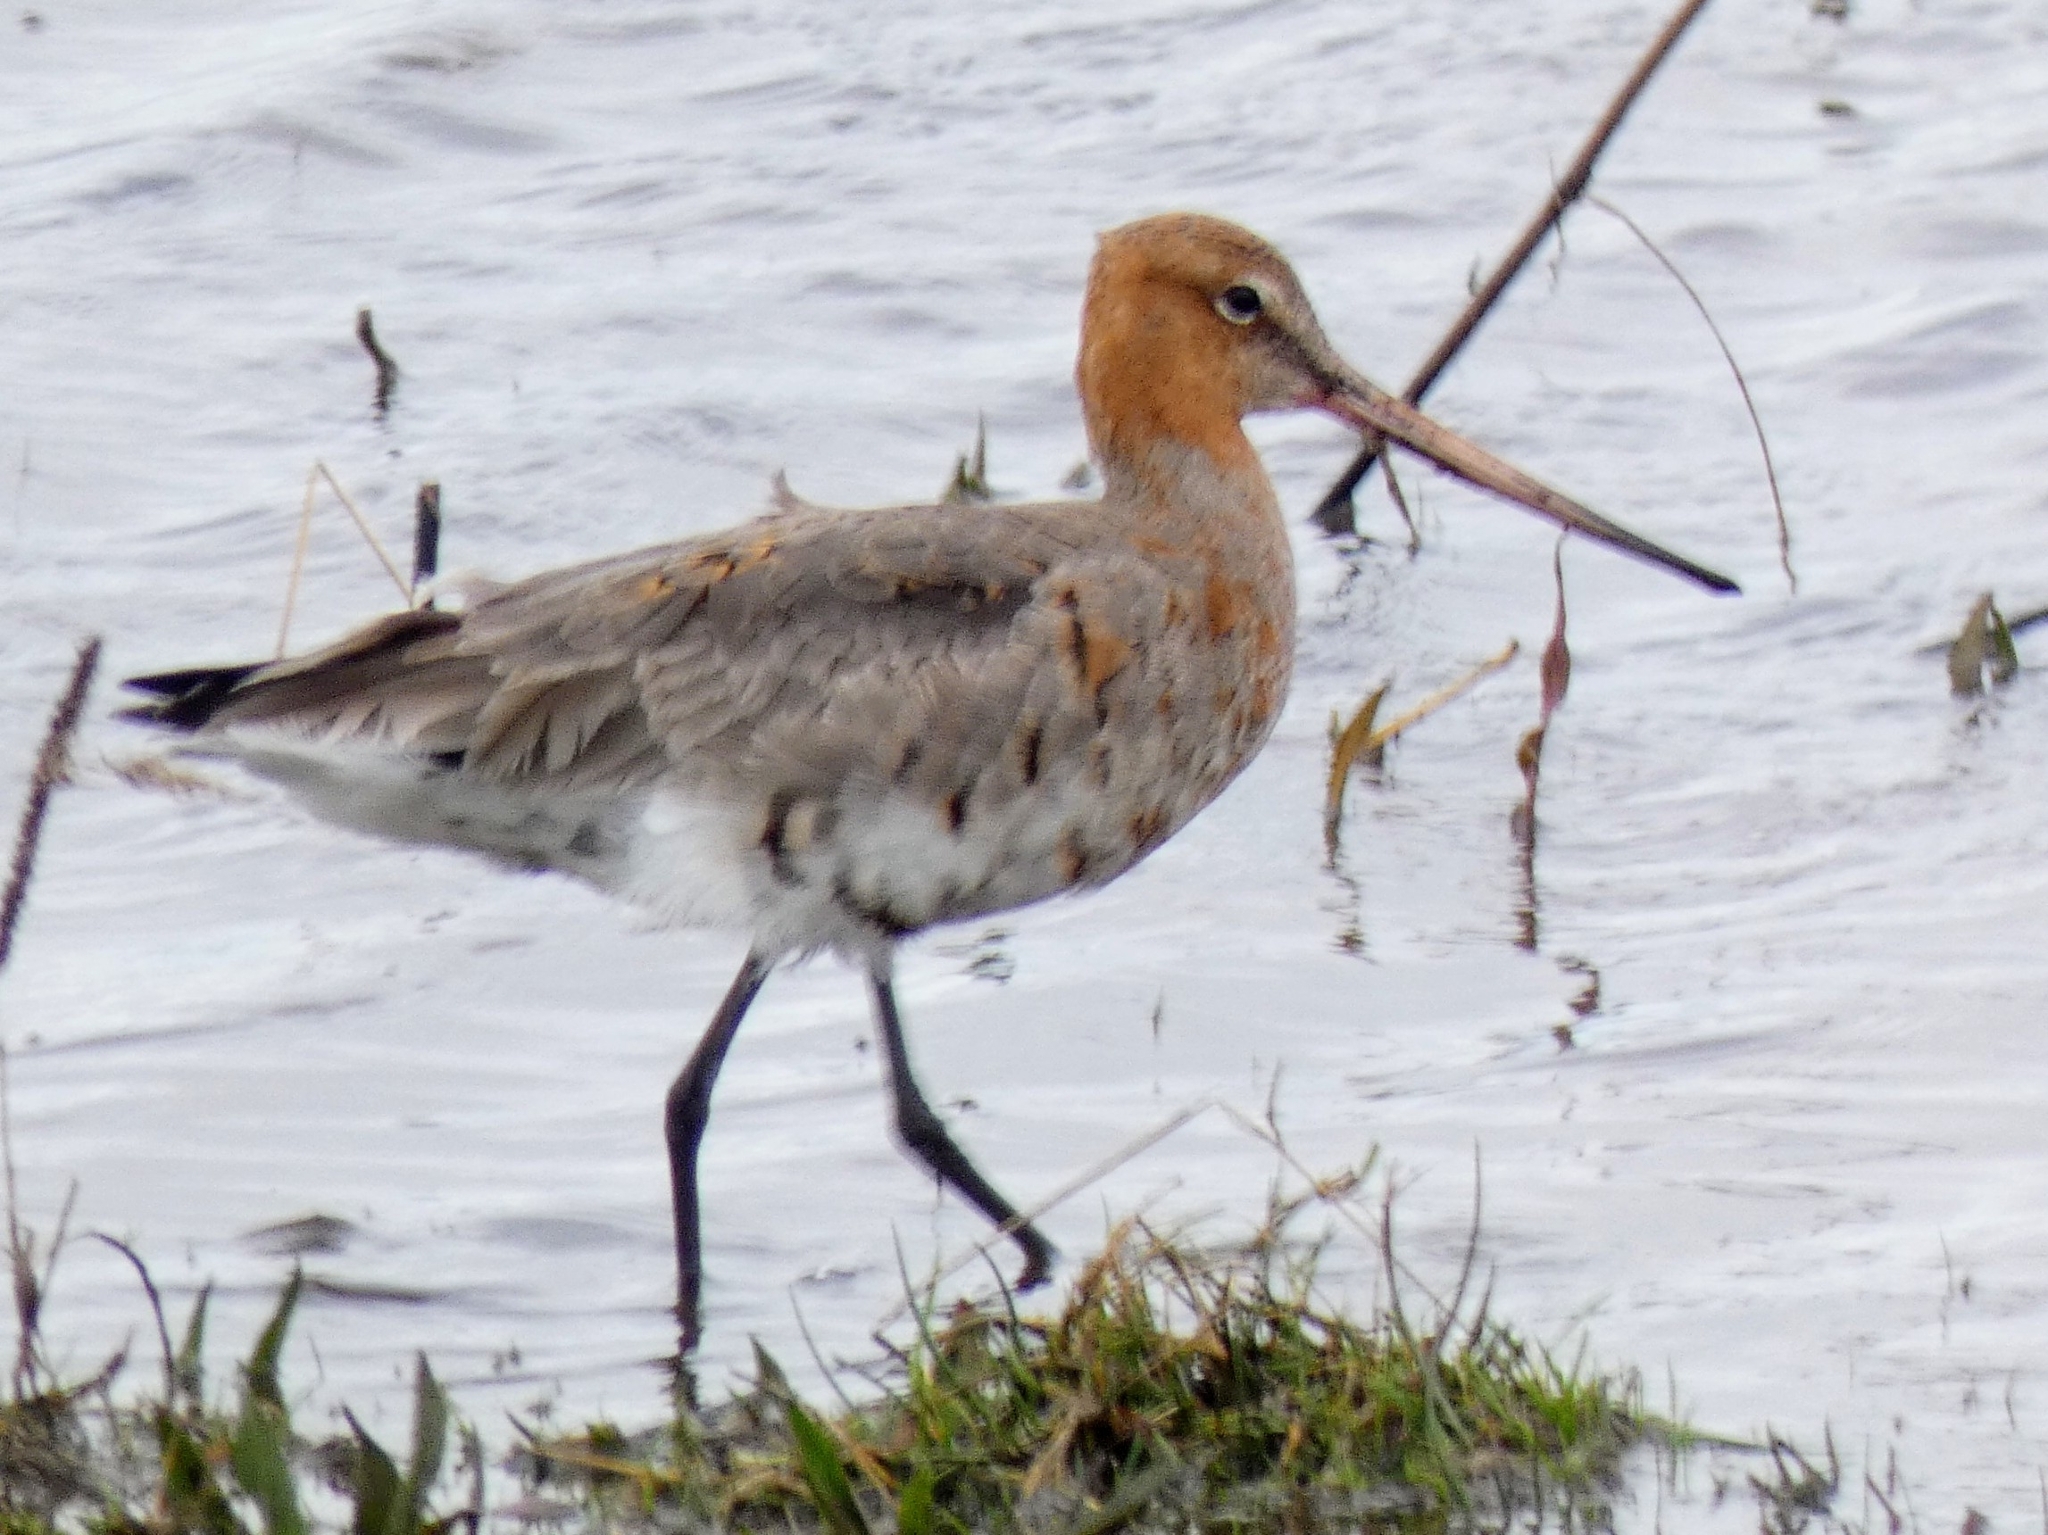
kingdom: Animalia
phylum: Chordata
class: Aves
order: Charadriiformes
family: Scolopacidae
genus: Limosa
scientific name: Limosa limosa
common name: Black-tailed godwit
